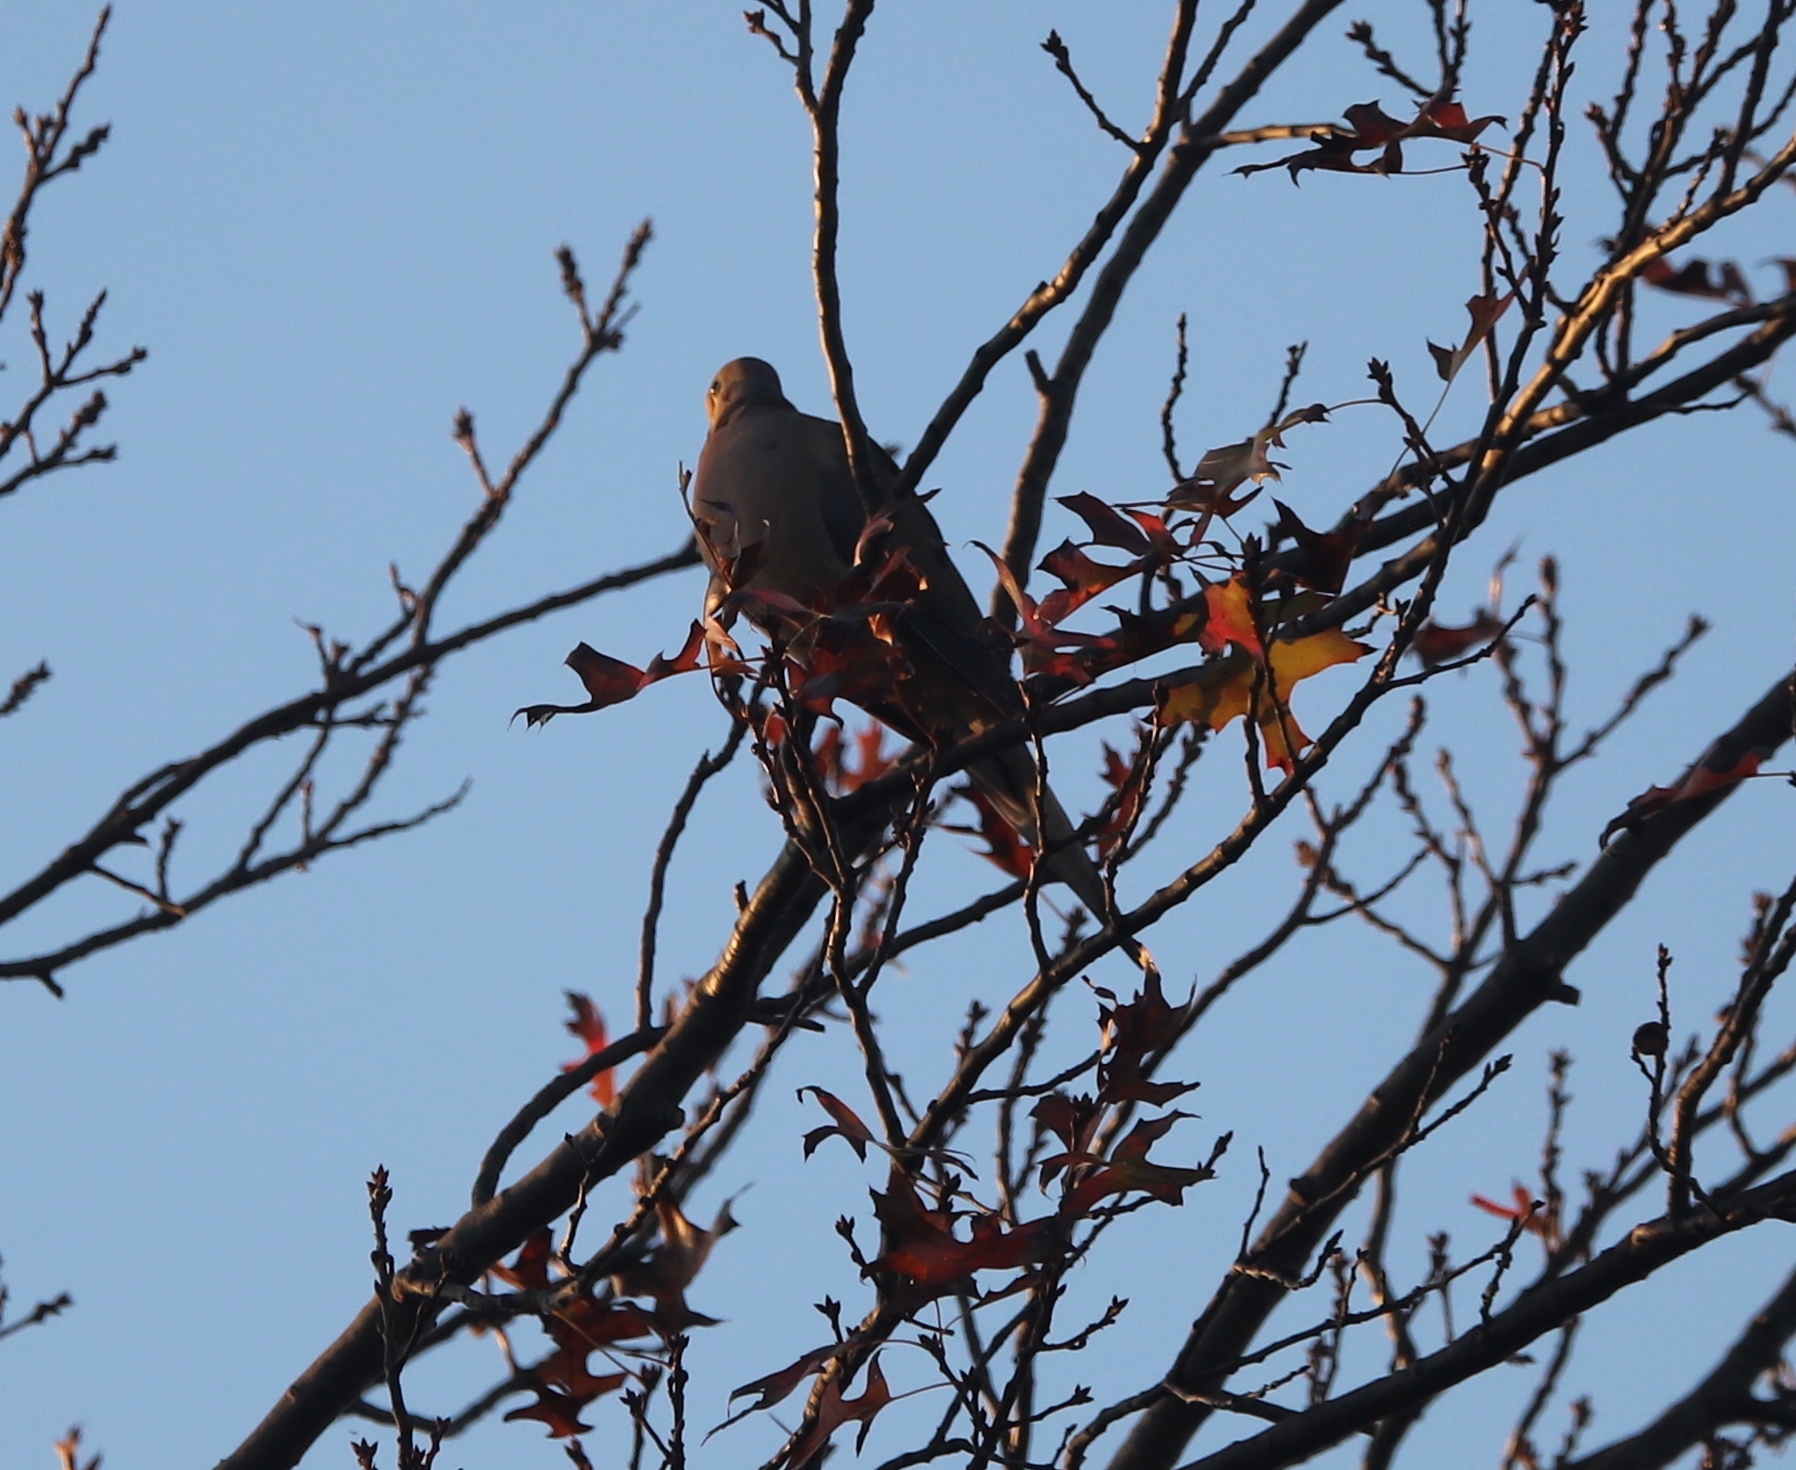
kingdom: Animalia
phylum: Chordata
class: Aves
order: Columbiformes
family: Columbidae
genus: Zenaida
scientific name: Zenaida macroura
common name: Mourning dove
